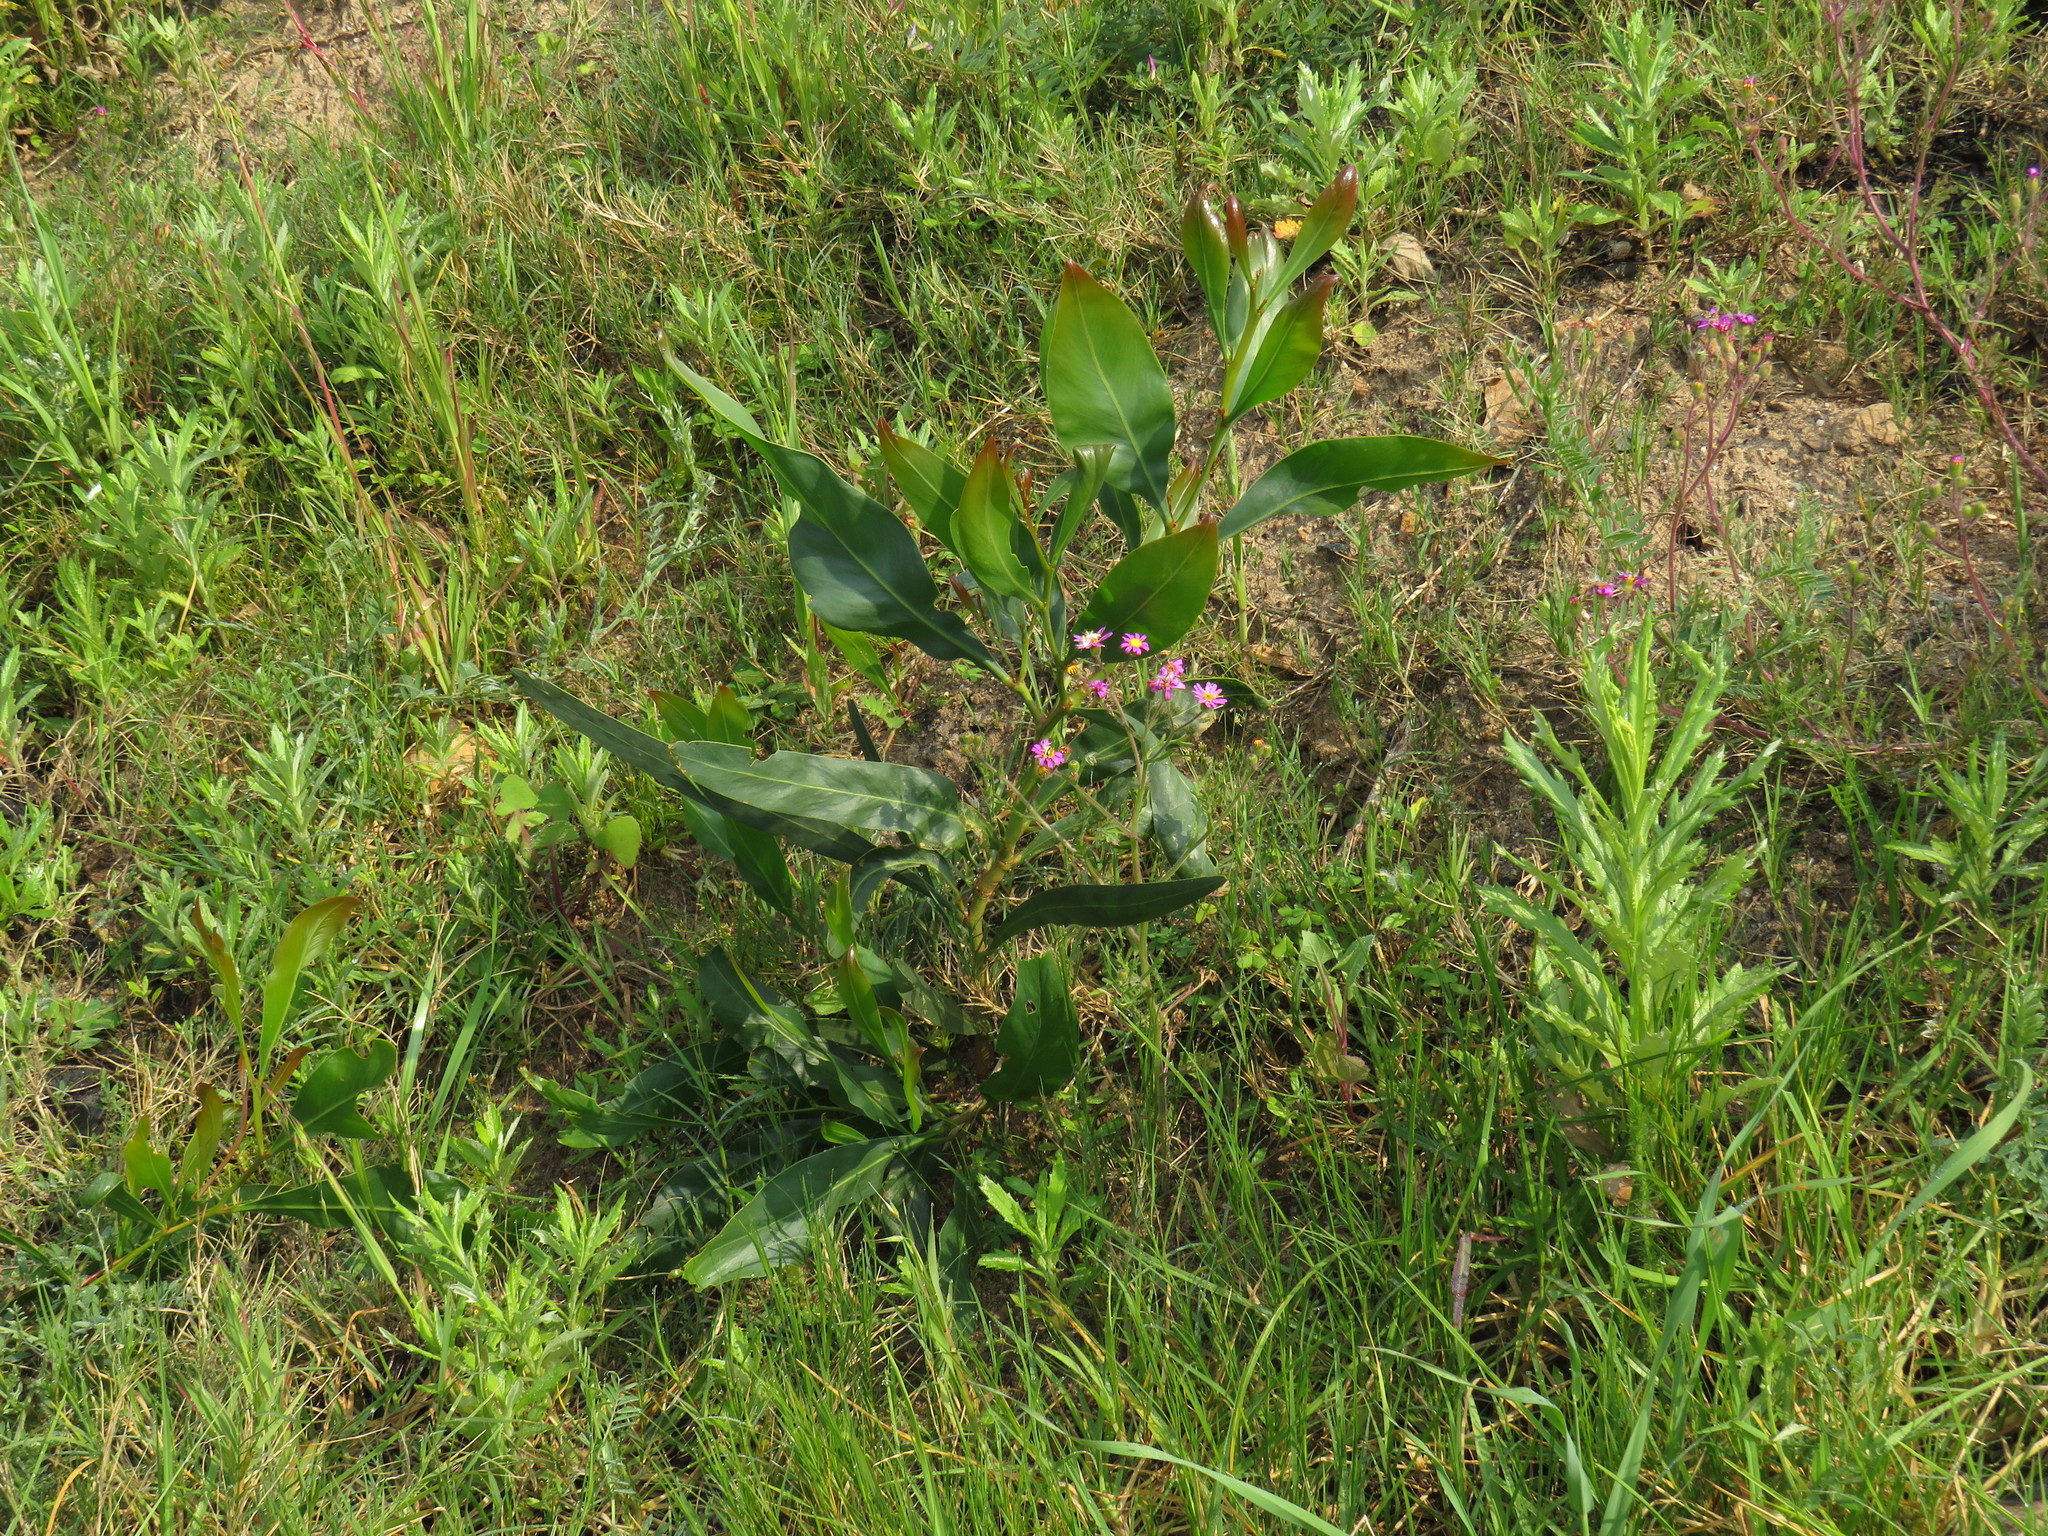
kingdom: Plantae
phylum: Tracheophyta
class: Magnoliopsida
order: Fabales
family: Fabaceae
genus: Acacia
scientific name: Acacia saligna
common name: Orange wattle
